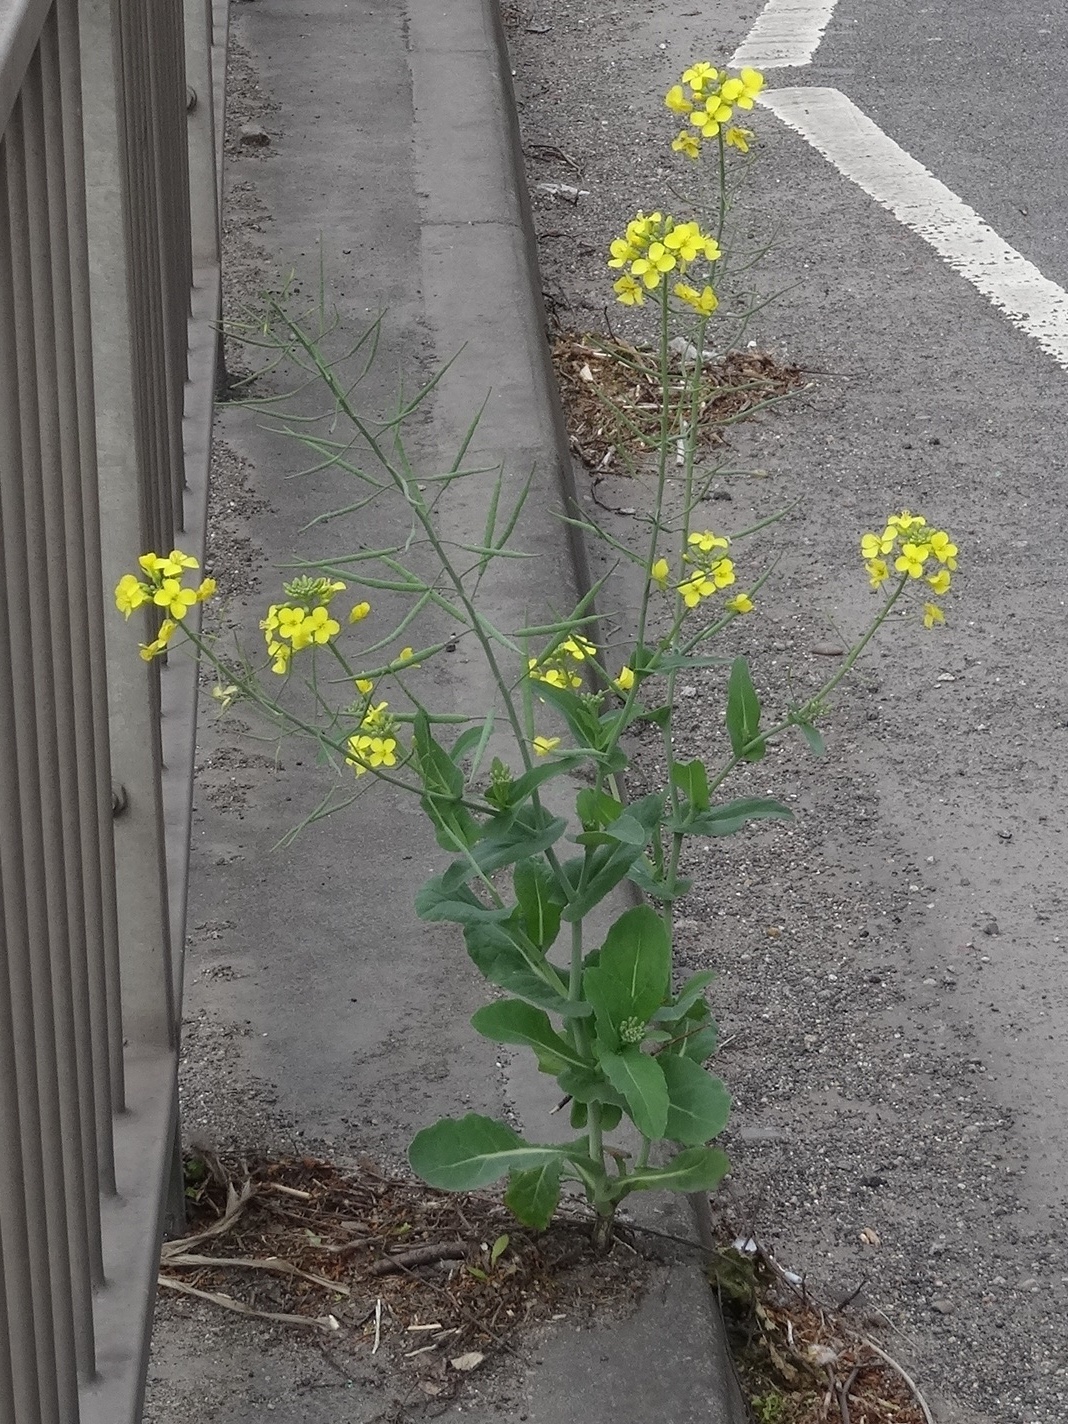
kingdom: Plantae
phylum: Tracheophyta
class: Magnoliopsida
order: Brassicales
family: Brassicaceae
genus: Brassica
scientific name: Brassica napus
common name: Rape
